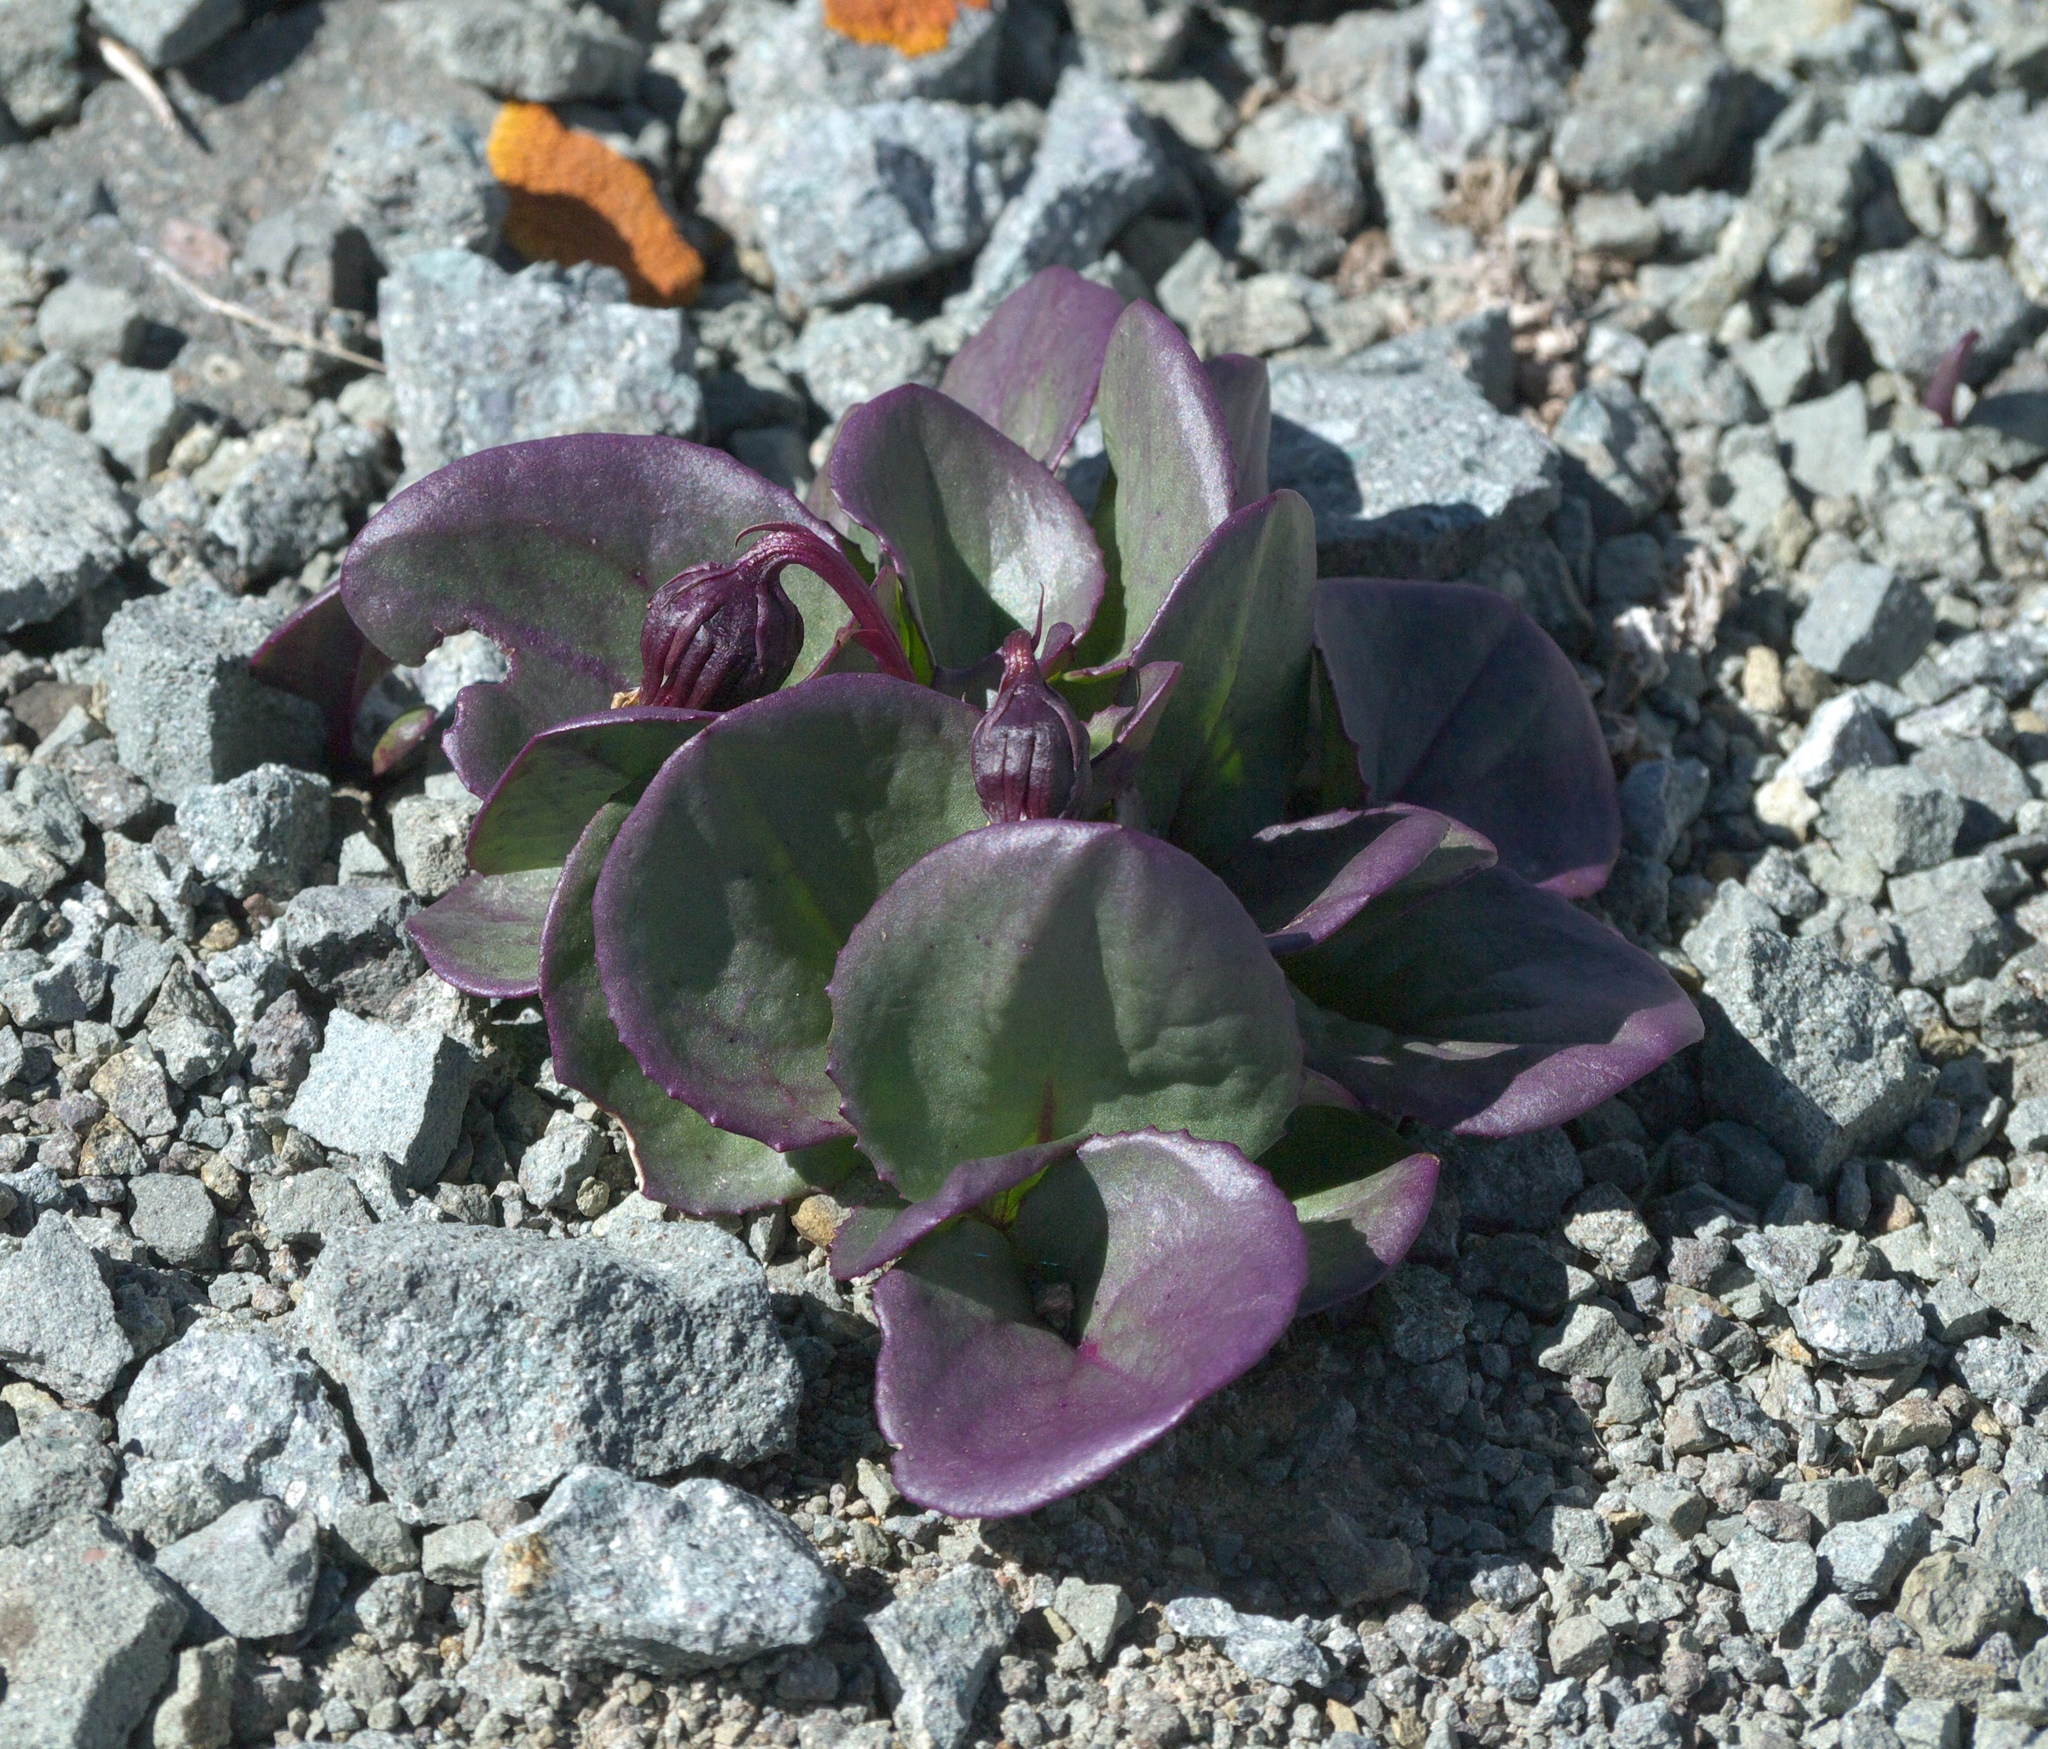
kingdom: Plantae
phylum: Tracheophyta
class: Magnoliopsida
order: Asterales
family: Asteraceae
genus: Senecio
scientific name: Senecio soldanella
